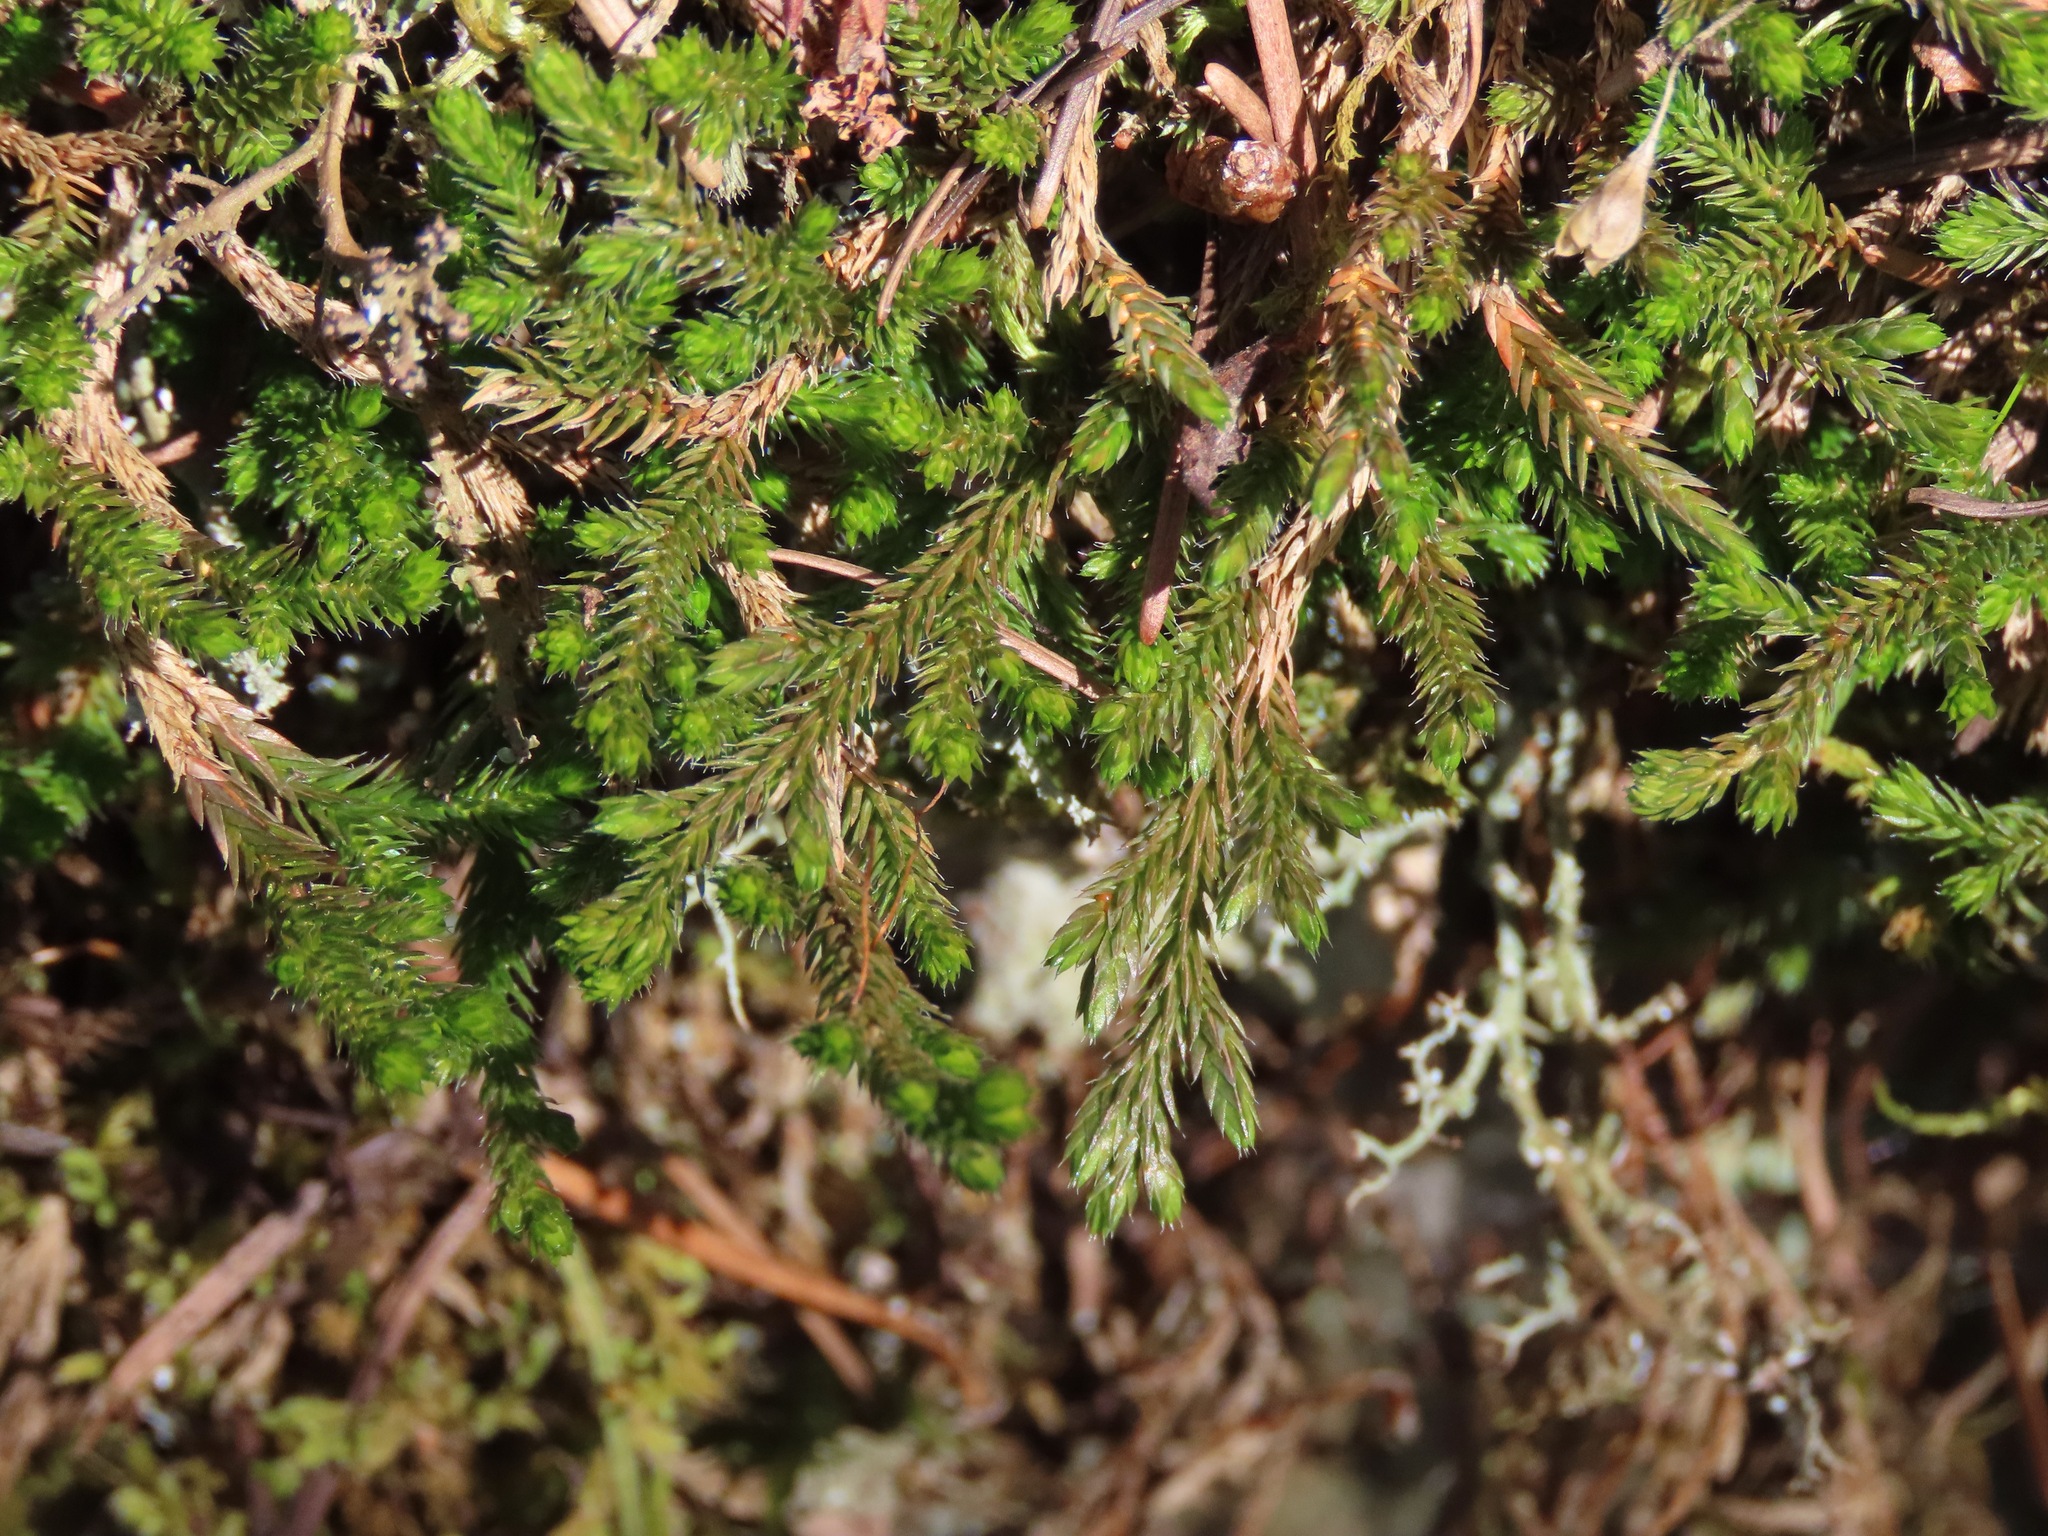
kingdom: Plantae
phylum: Tracheophyta
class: Lycopodiopsida
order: Selaginellales
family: Selaginellaceae
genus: Selaginella
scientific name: Selaginella wallacei
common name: Wallace's selaginella
